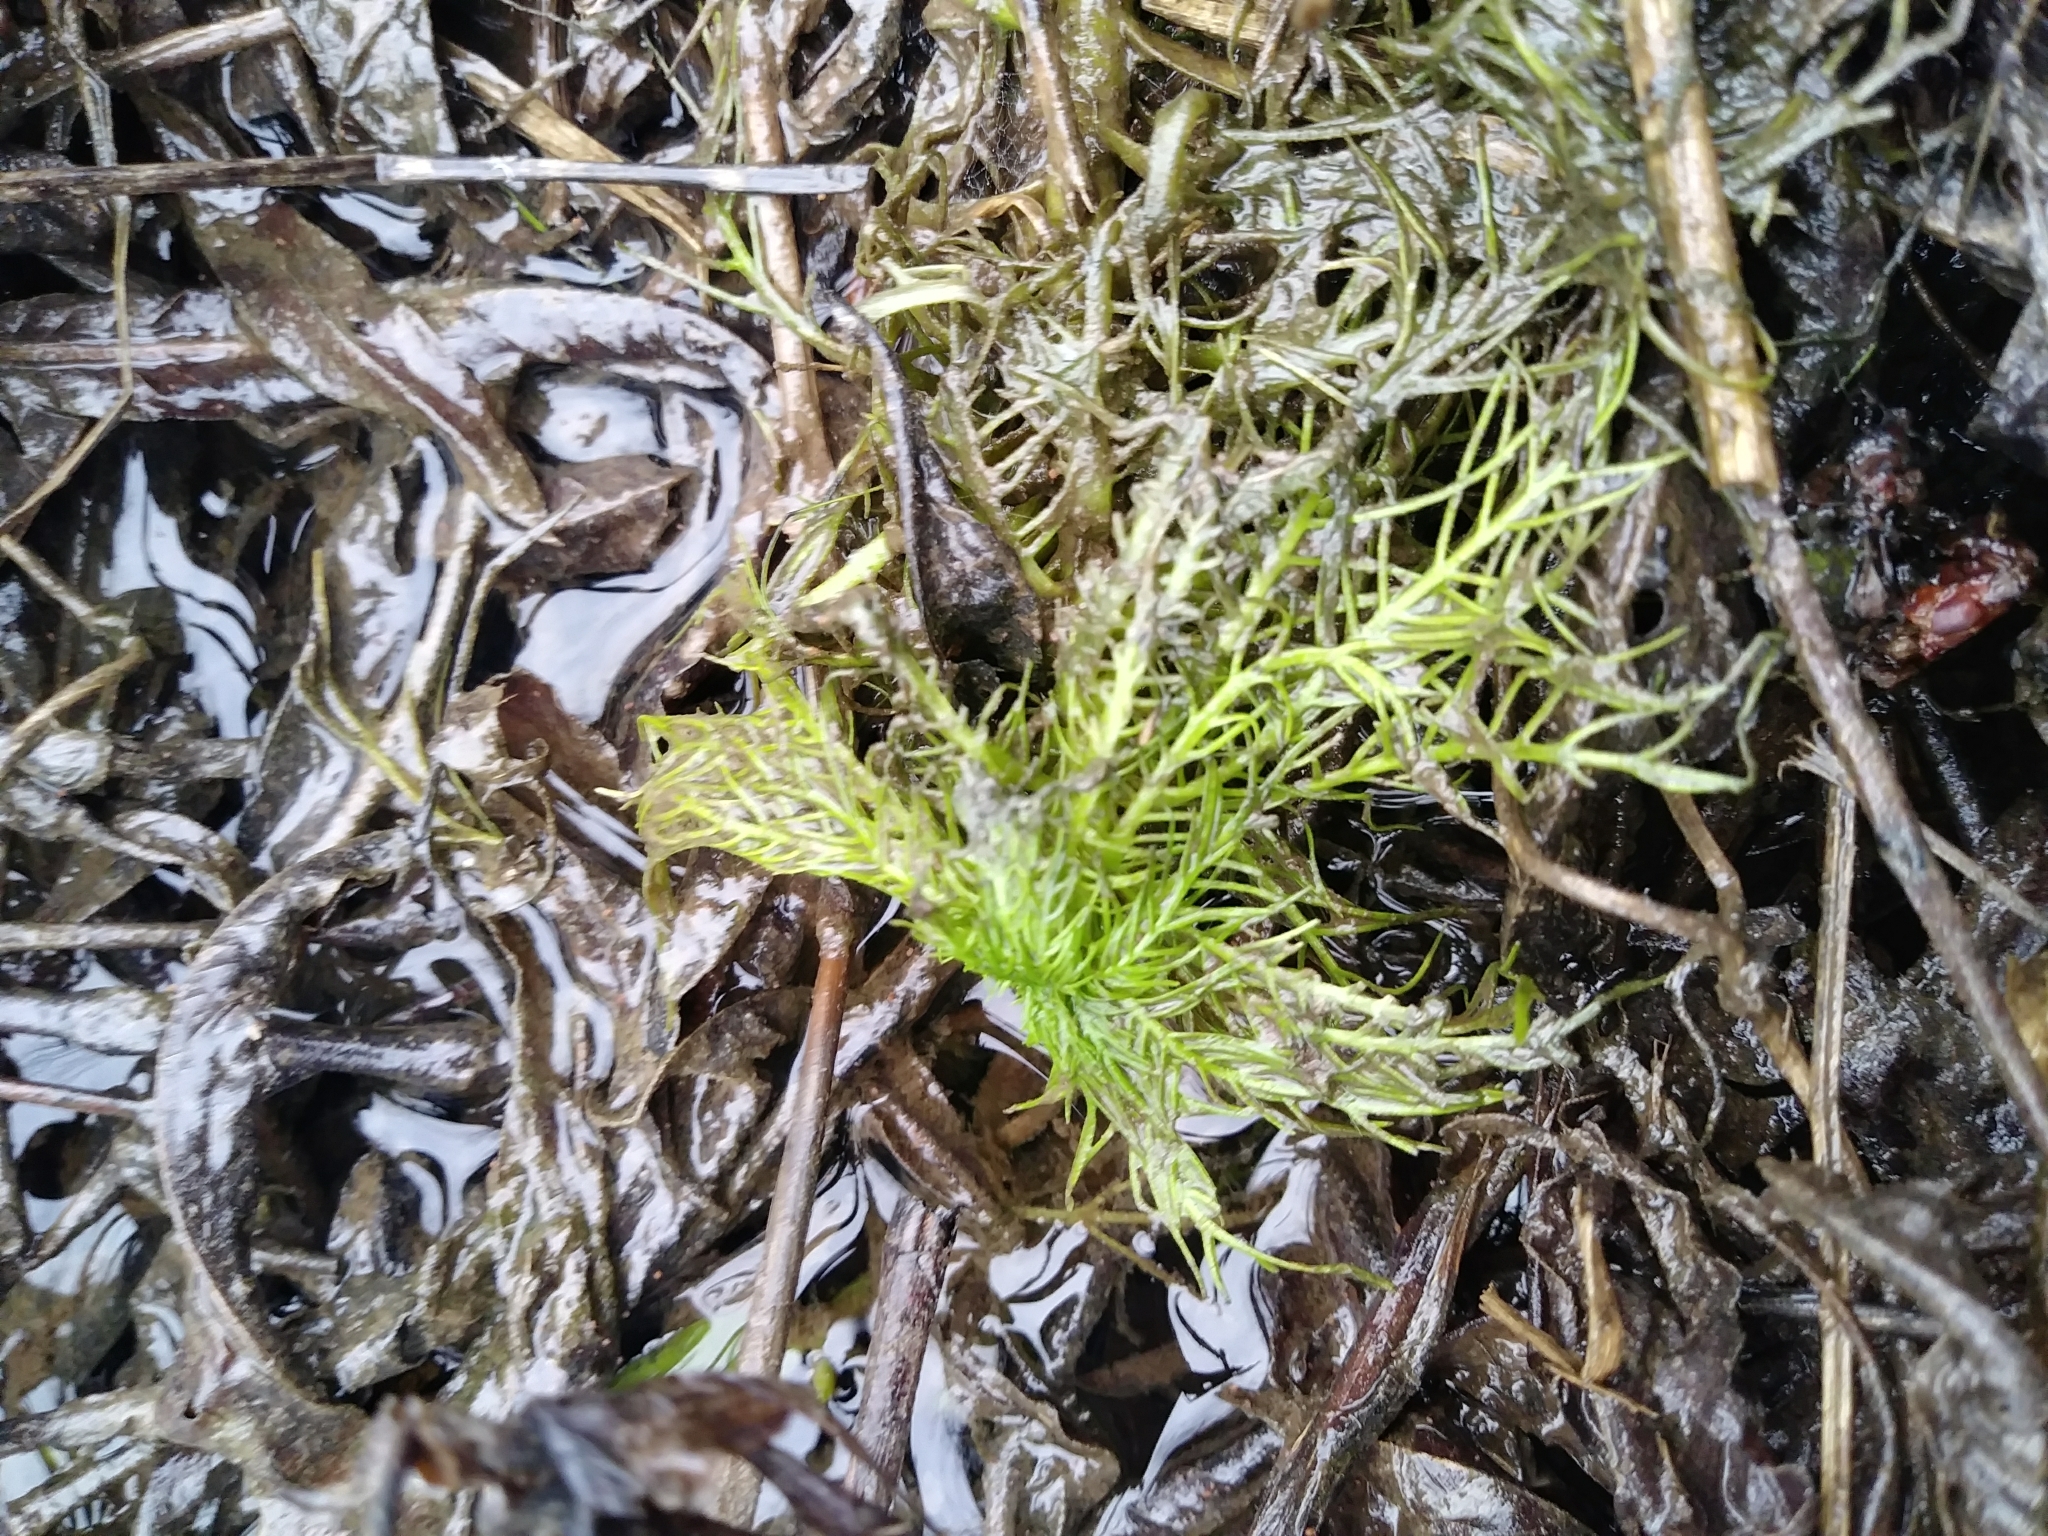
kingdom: Plantae
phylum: Tracheophyta
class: Magnoliopsida
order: Ericales
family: Primulaceae
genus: Hottonia
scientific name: Hottonia inflata
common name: American featherfoil
